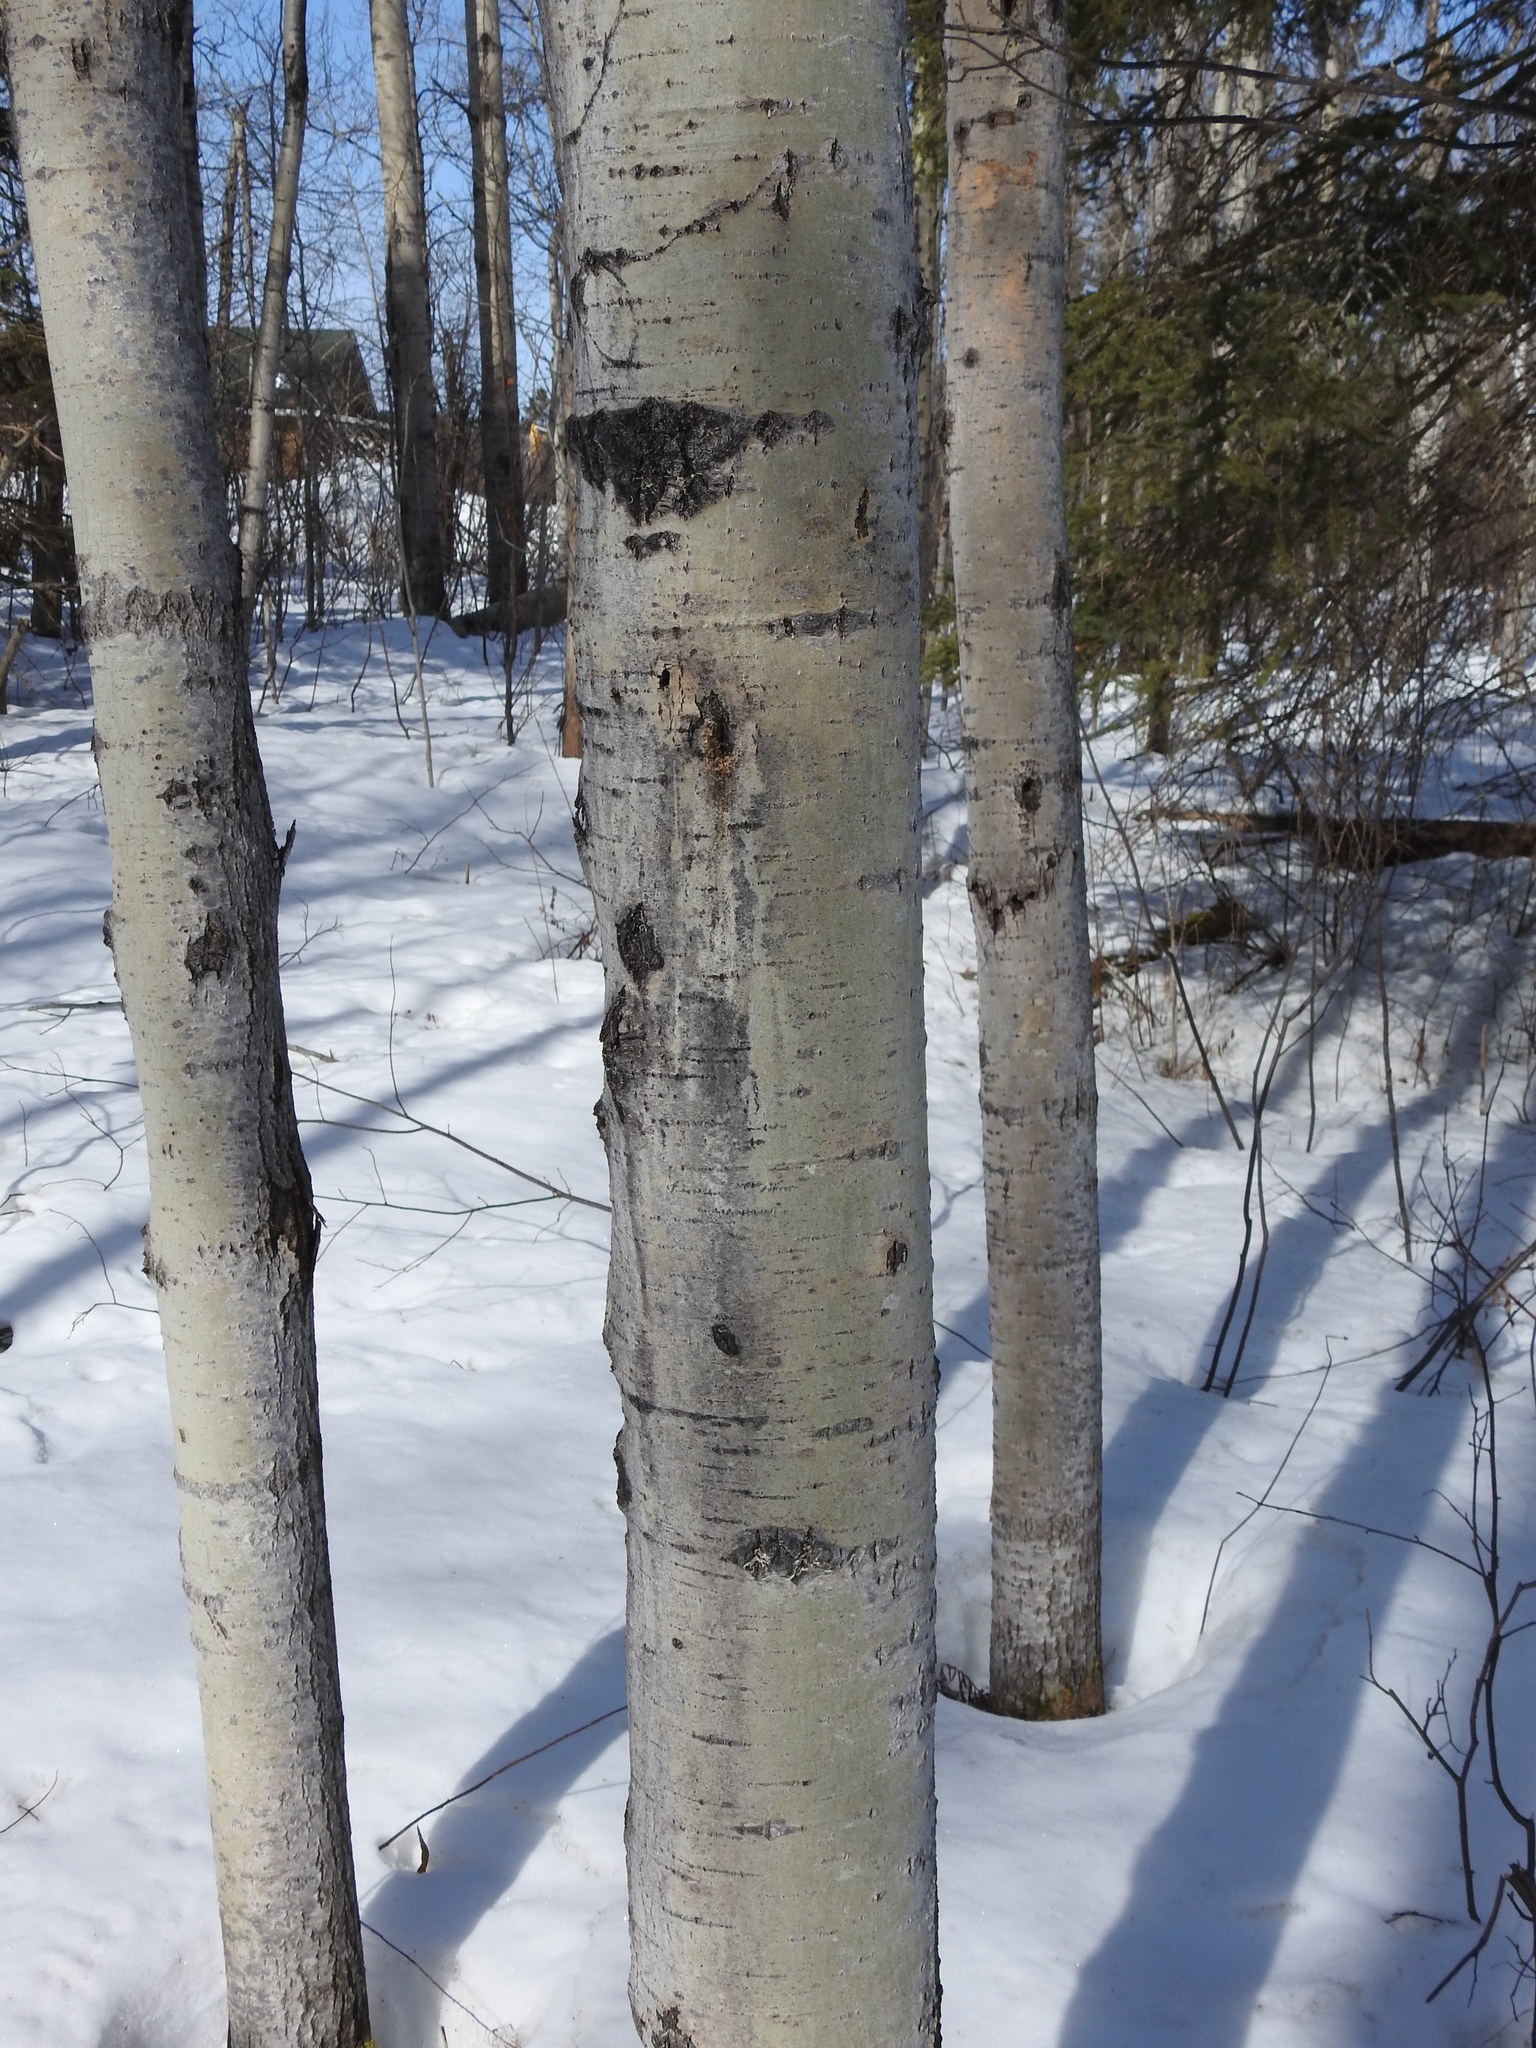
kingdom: Plantae
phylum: Tracheophyta
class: Magnoliopsida
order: Malpighiales
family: Salicaceae
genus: Populus
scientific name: Populus tremuloides
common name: Quaking aspen
